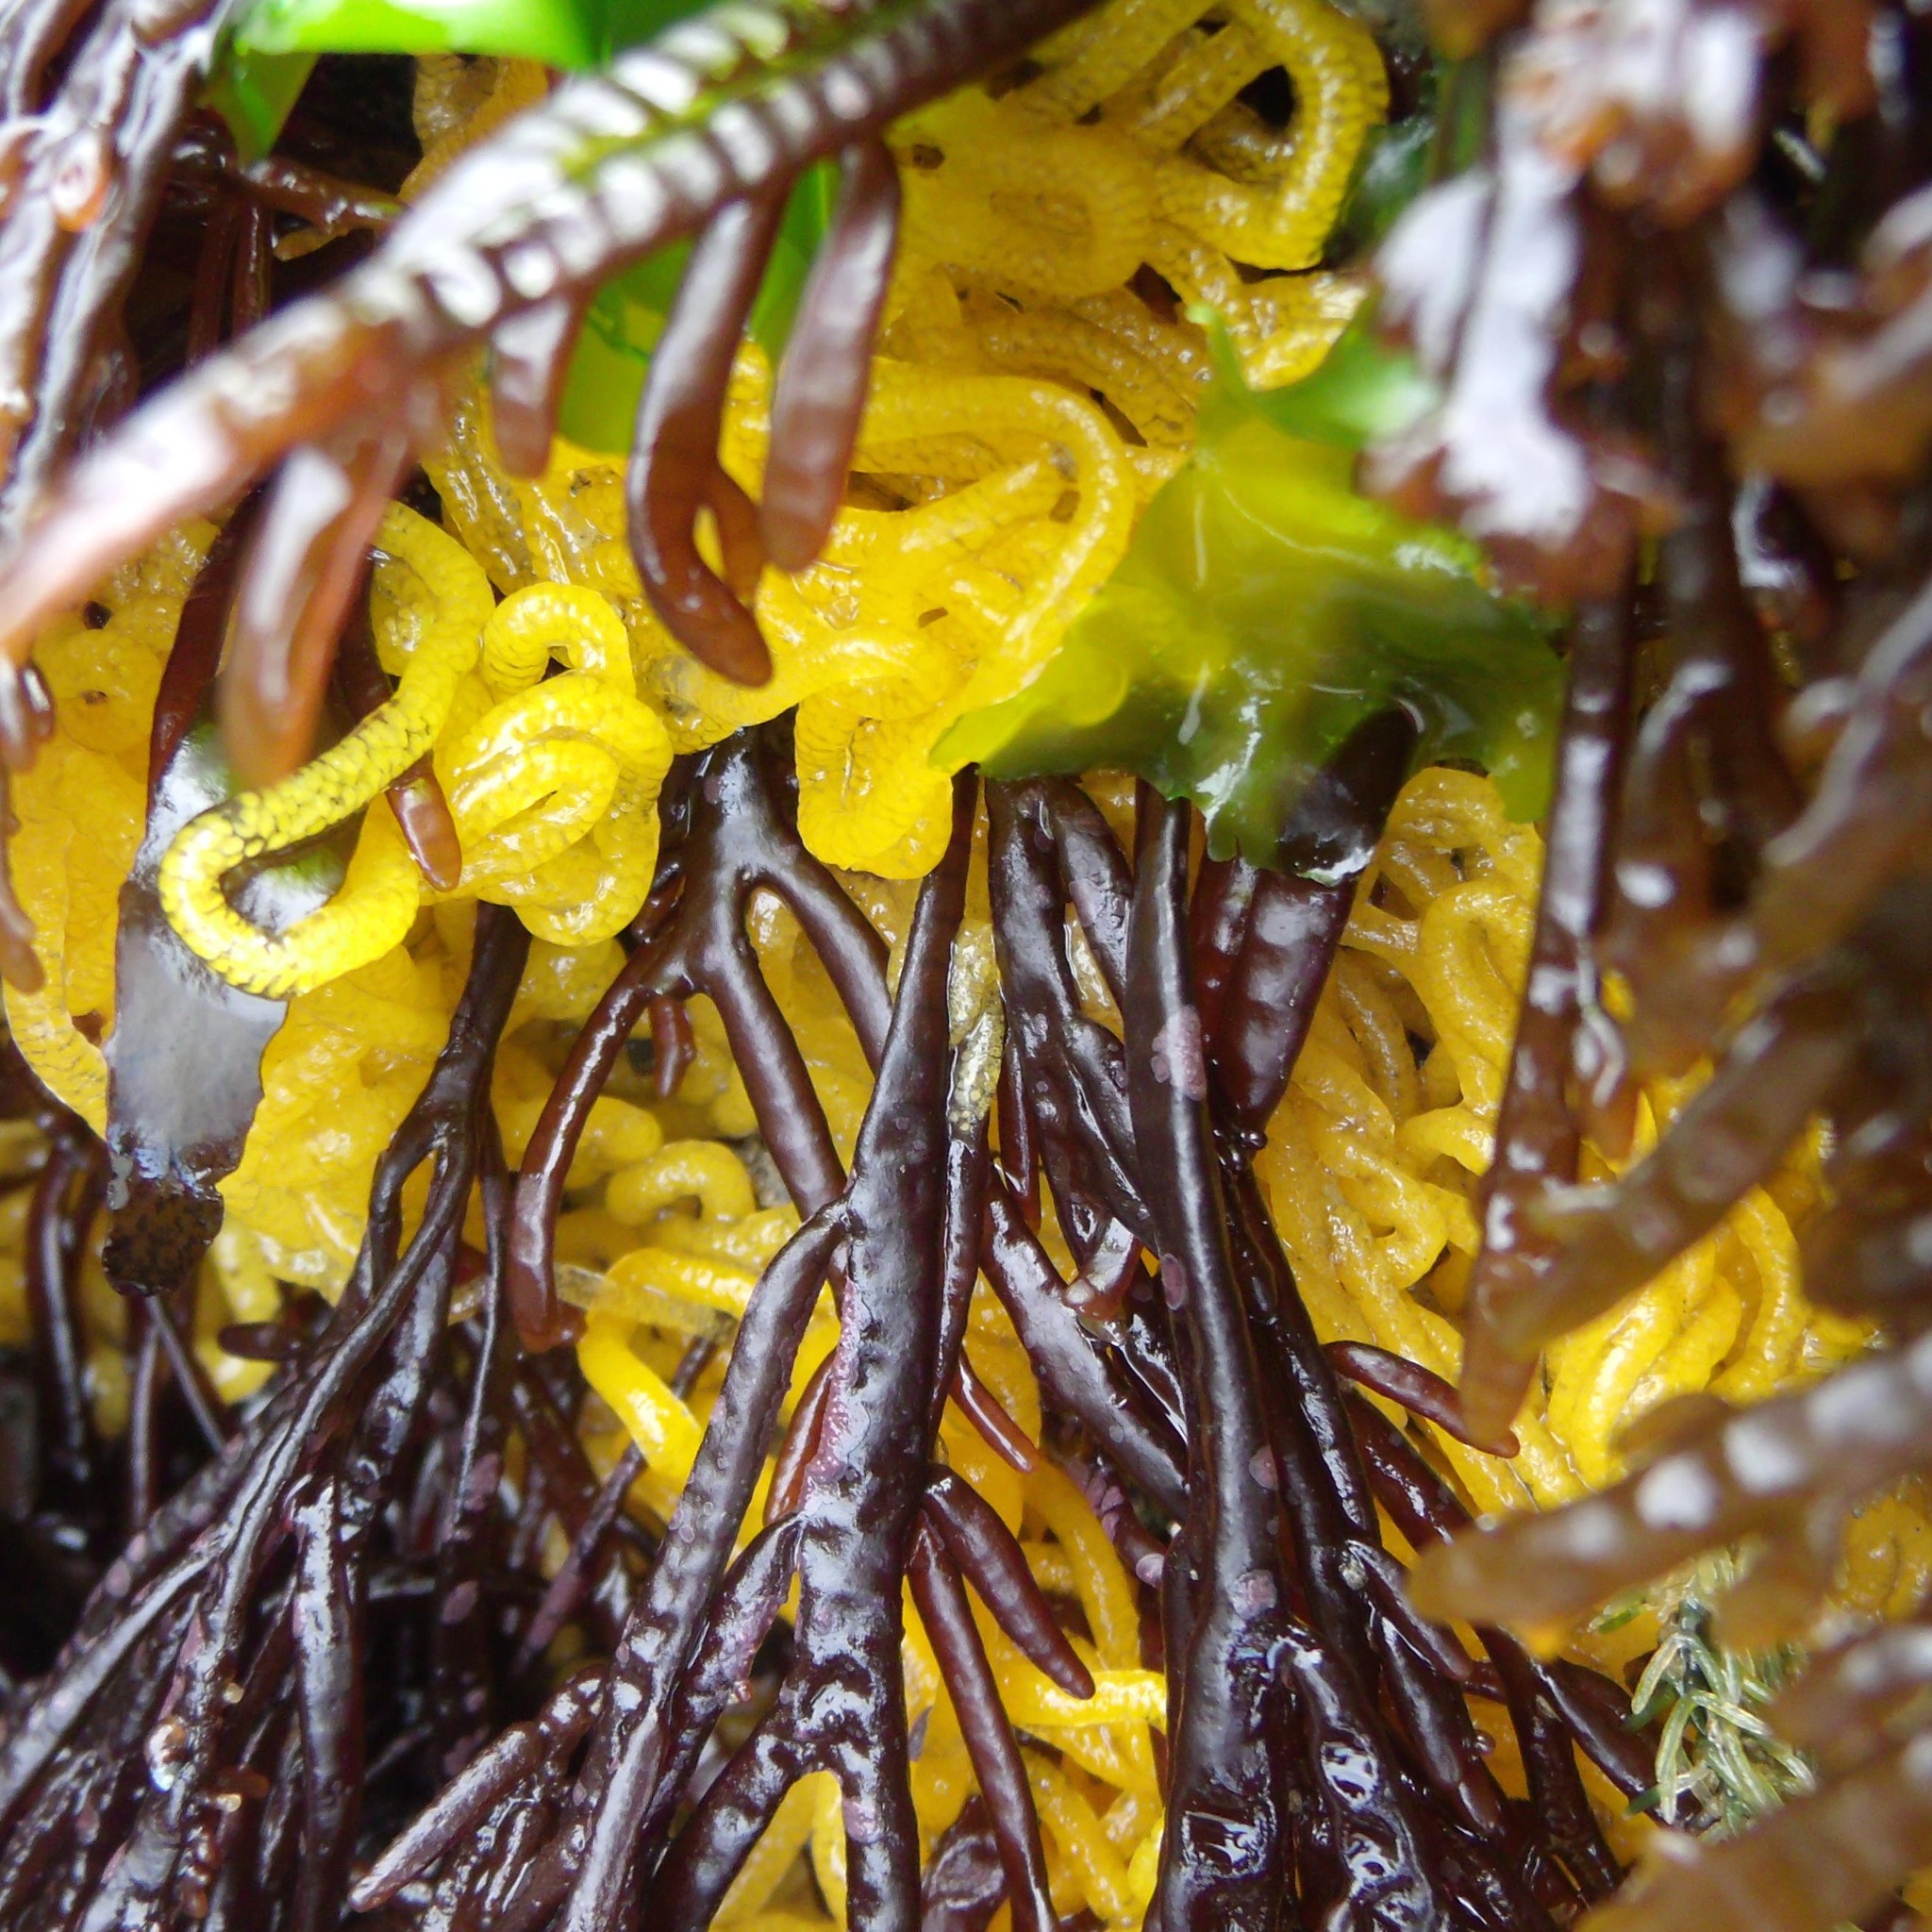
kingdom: Animalia
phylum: Mollusca
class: Gastropoda
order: Aplysiida
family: Aplysiidae
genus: Aplysia
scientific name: Aplysia juliana
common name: Walking sea hare
